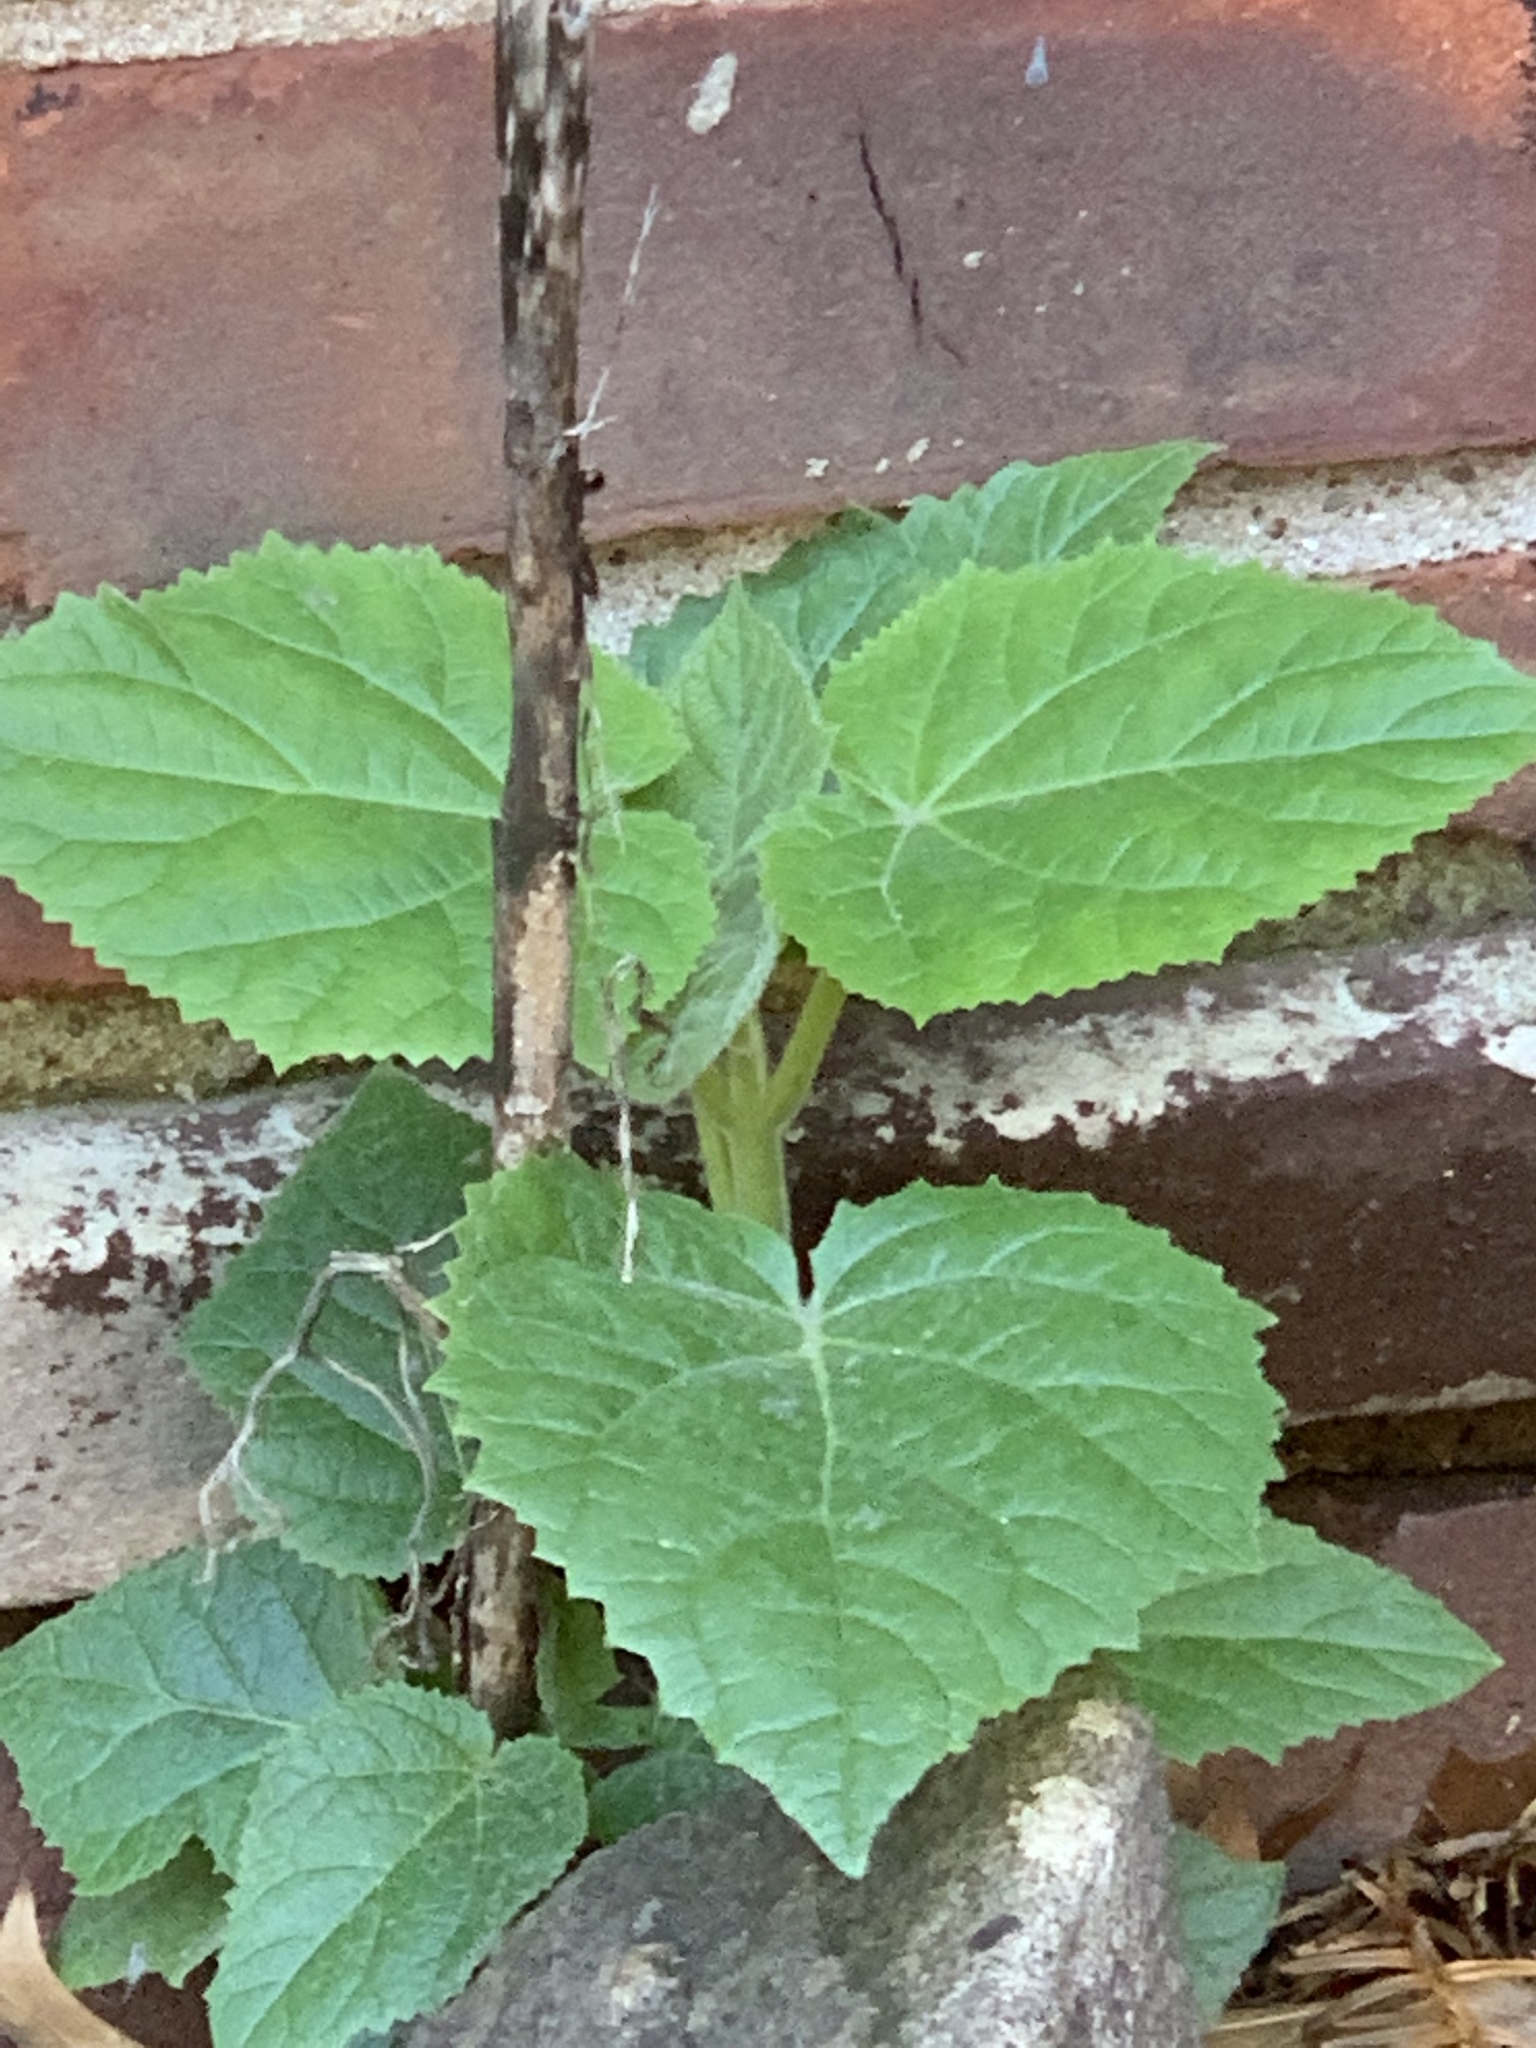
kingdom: Plantae
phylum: Tracheophyta
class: Magnoliopsida
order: Lamiales
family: Paulowniaceae
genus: Paulownia
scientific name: Paulownia tomentosa
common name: Foxglove-tree
